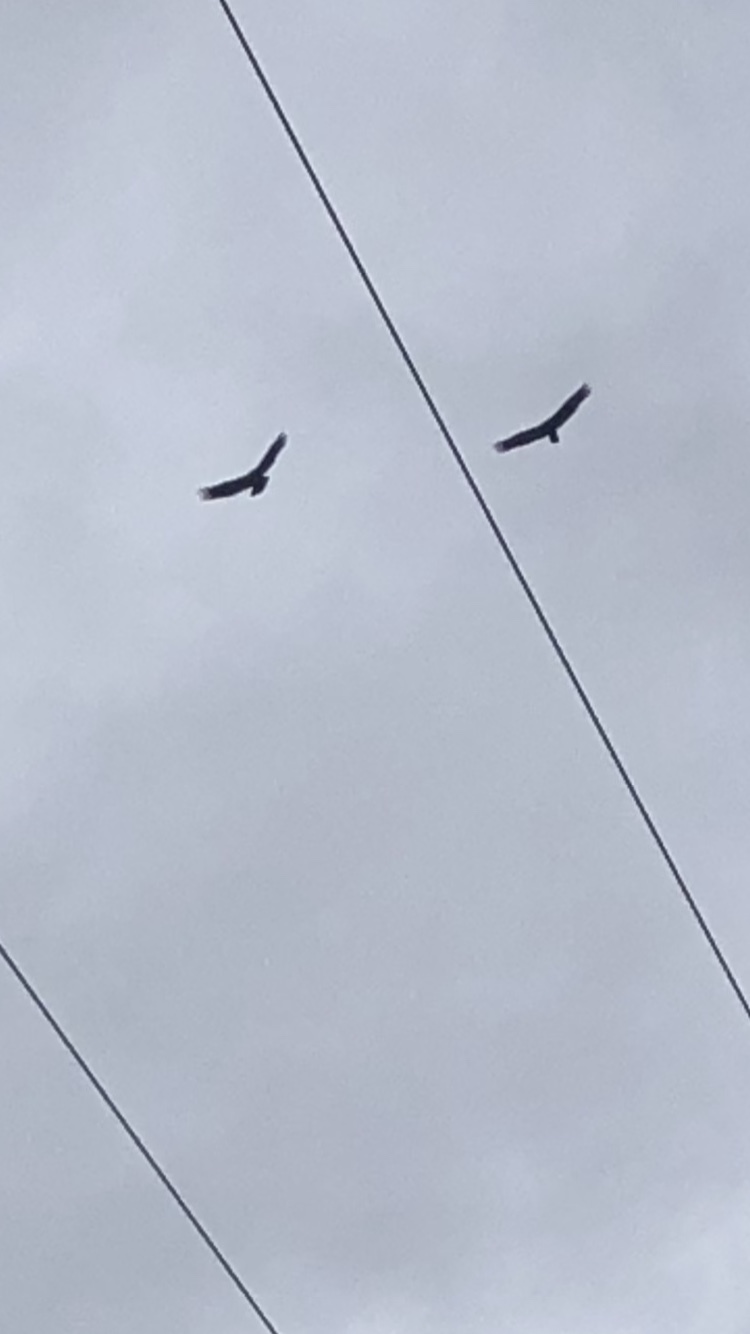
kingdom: Animalia
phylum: Chordata
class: Aves
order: Accipitriformes
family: Cathartidae
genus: Cathartes
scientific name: Cathartes aura
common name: Turkey vulture
